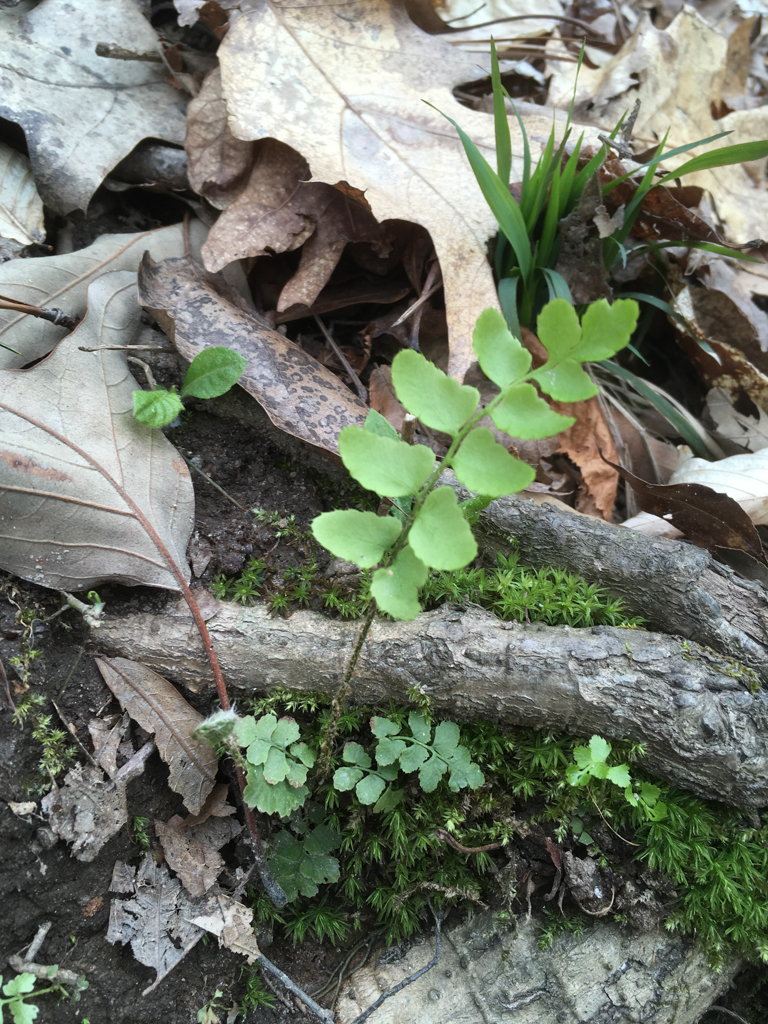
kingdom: Plantae
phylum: Tracheophyta
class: Polypodiopsida
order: Polypodiales
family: Dryopteridaceae
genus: Polystichum
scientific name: Polystichum acrostichoides
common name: Christmas fern
